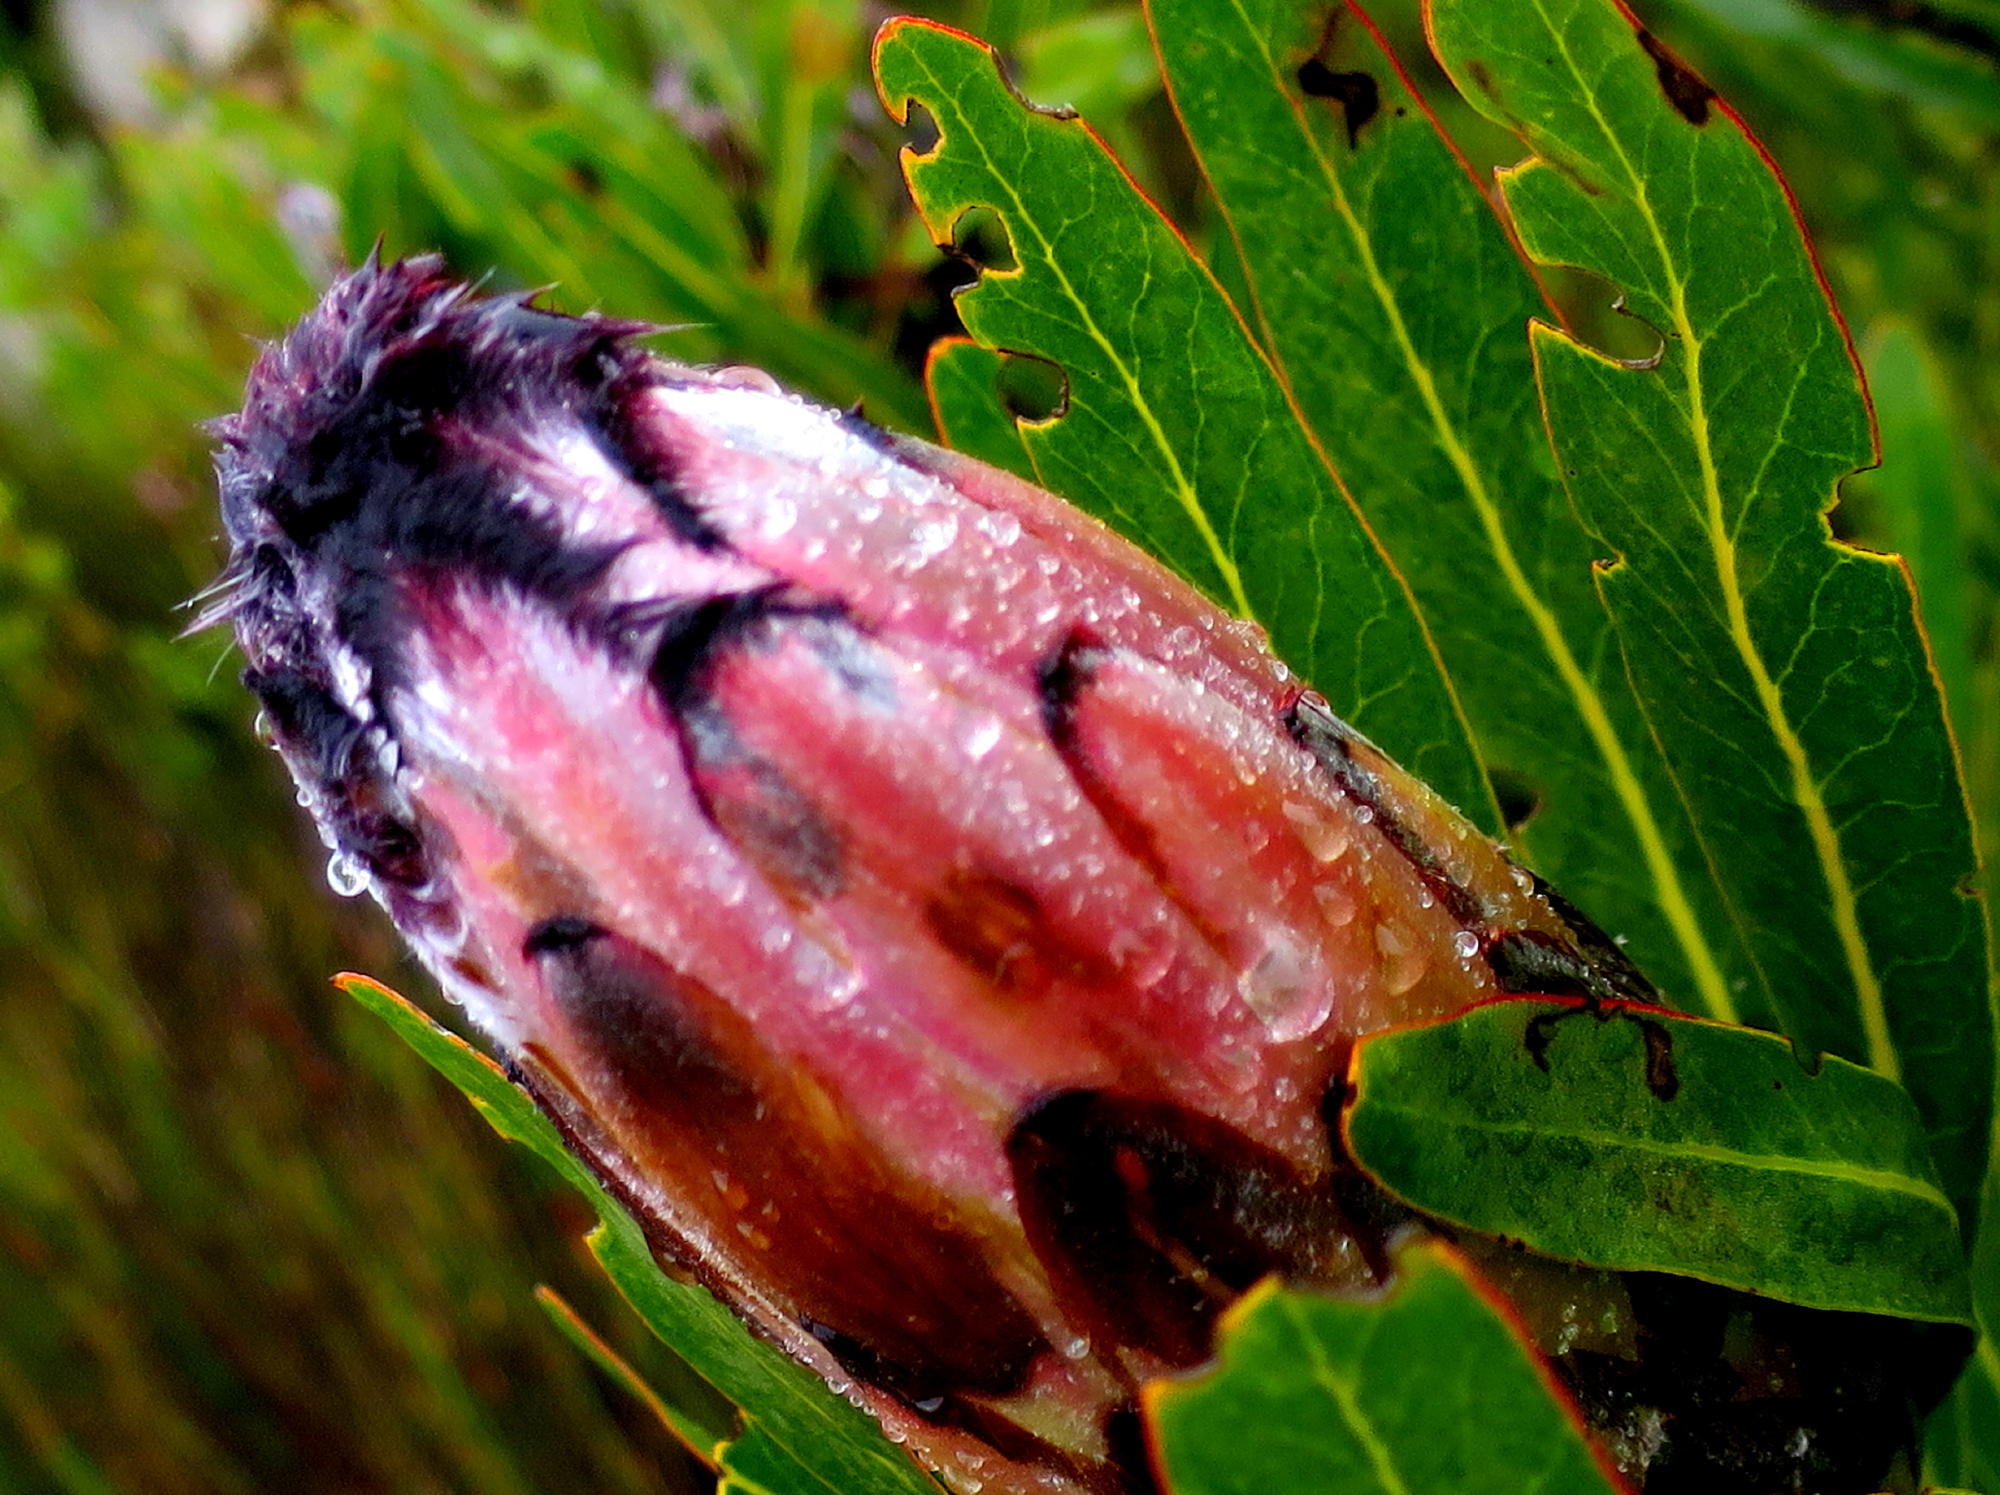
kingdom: Plantae
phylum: Tracheophyta
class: Magnoliopsida
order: Proteales
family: Proteaceae
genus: Protea
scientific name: Protea neriifolia
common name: Blue sugarbush
